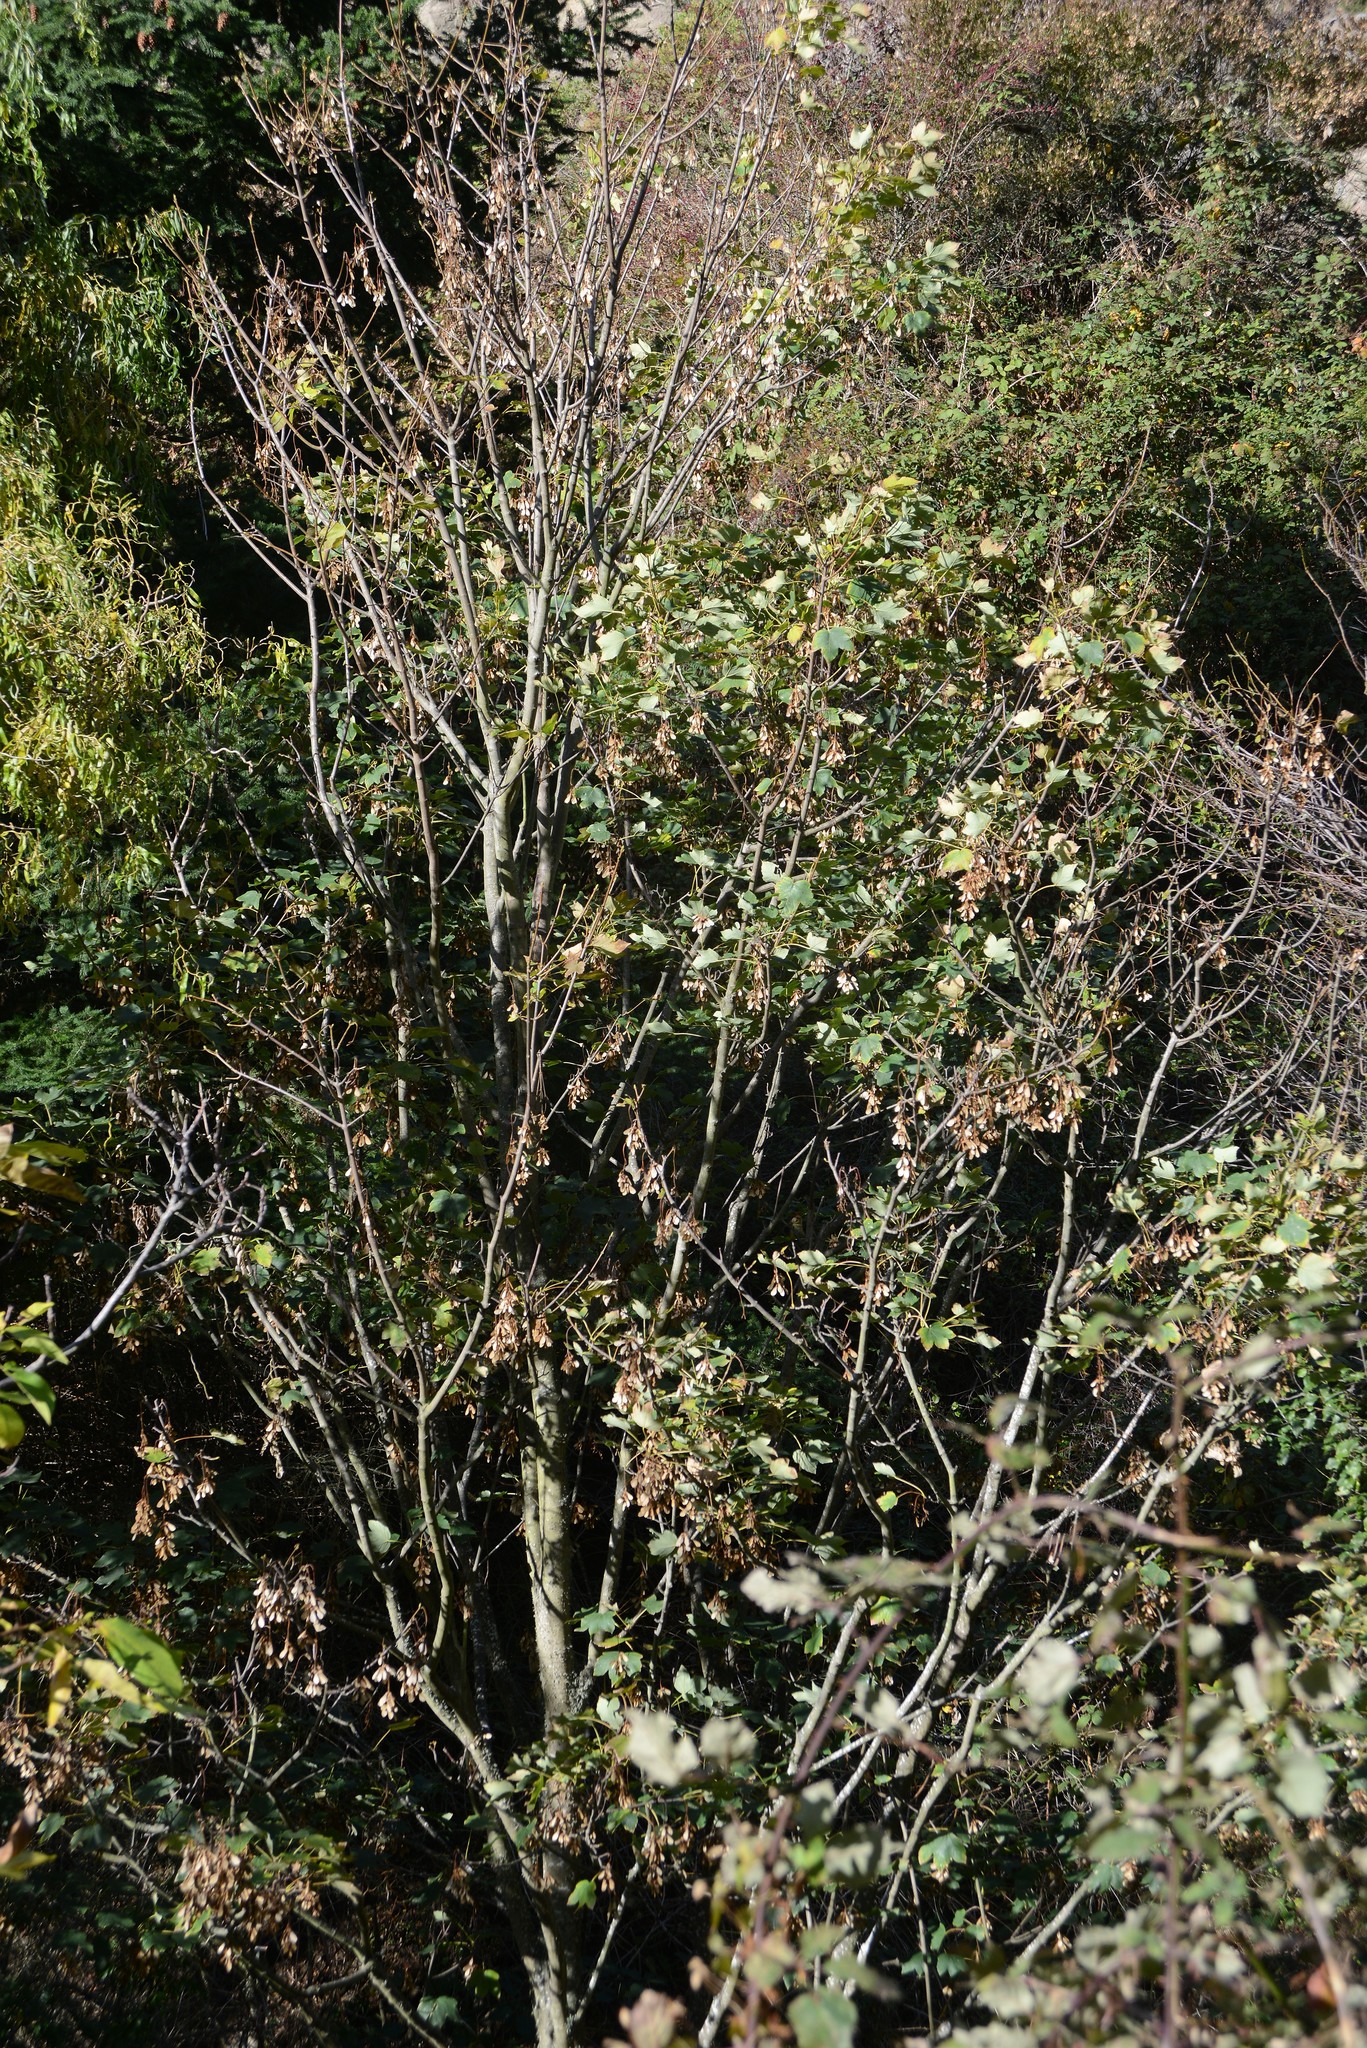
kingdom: Plantae
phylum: Tracheophyta
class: Magnoliopsida
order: Sapindales
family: Sapindaceae
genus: Acer
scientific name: Acer pseudoplatanus
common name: Sycamore
